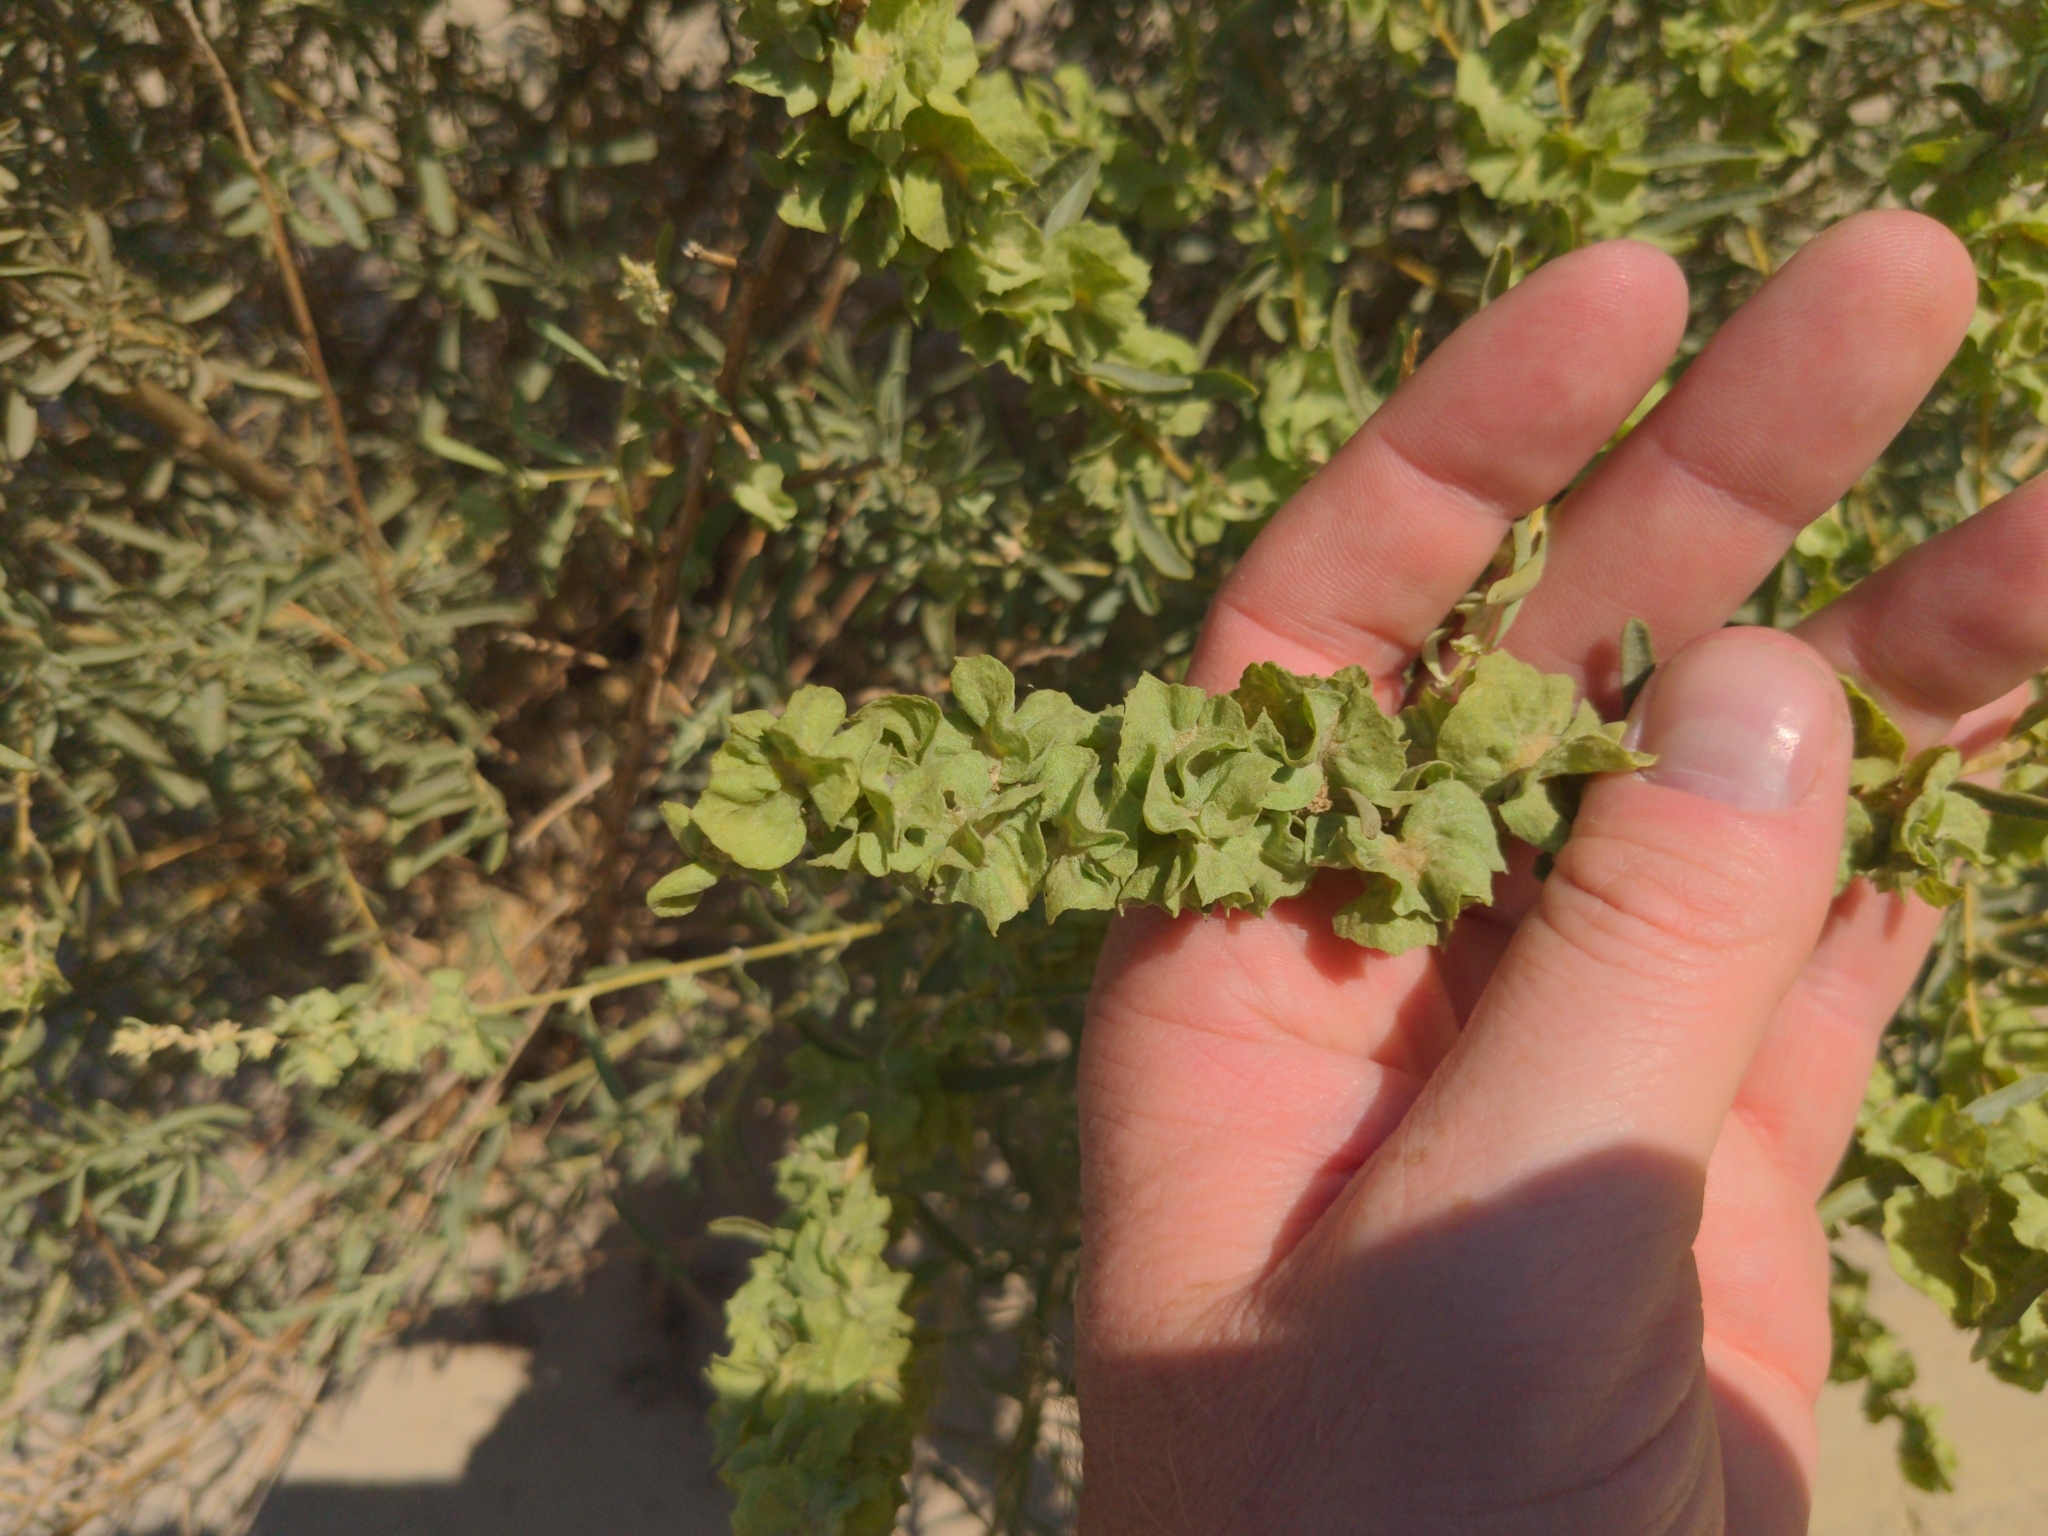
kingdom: Plantae
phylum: Tracheophyta
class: Magnoliopsida
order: Caryophyllales
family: Amaranthaceae
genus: Atriplex
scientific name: Atriplex canescens
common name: Four-wing saltbush
